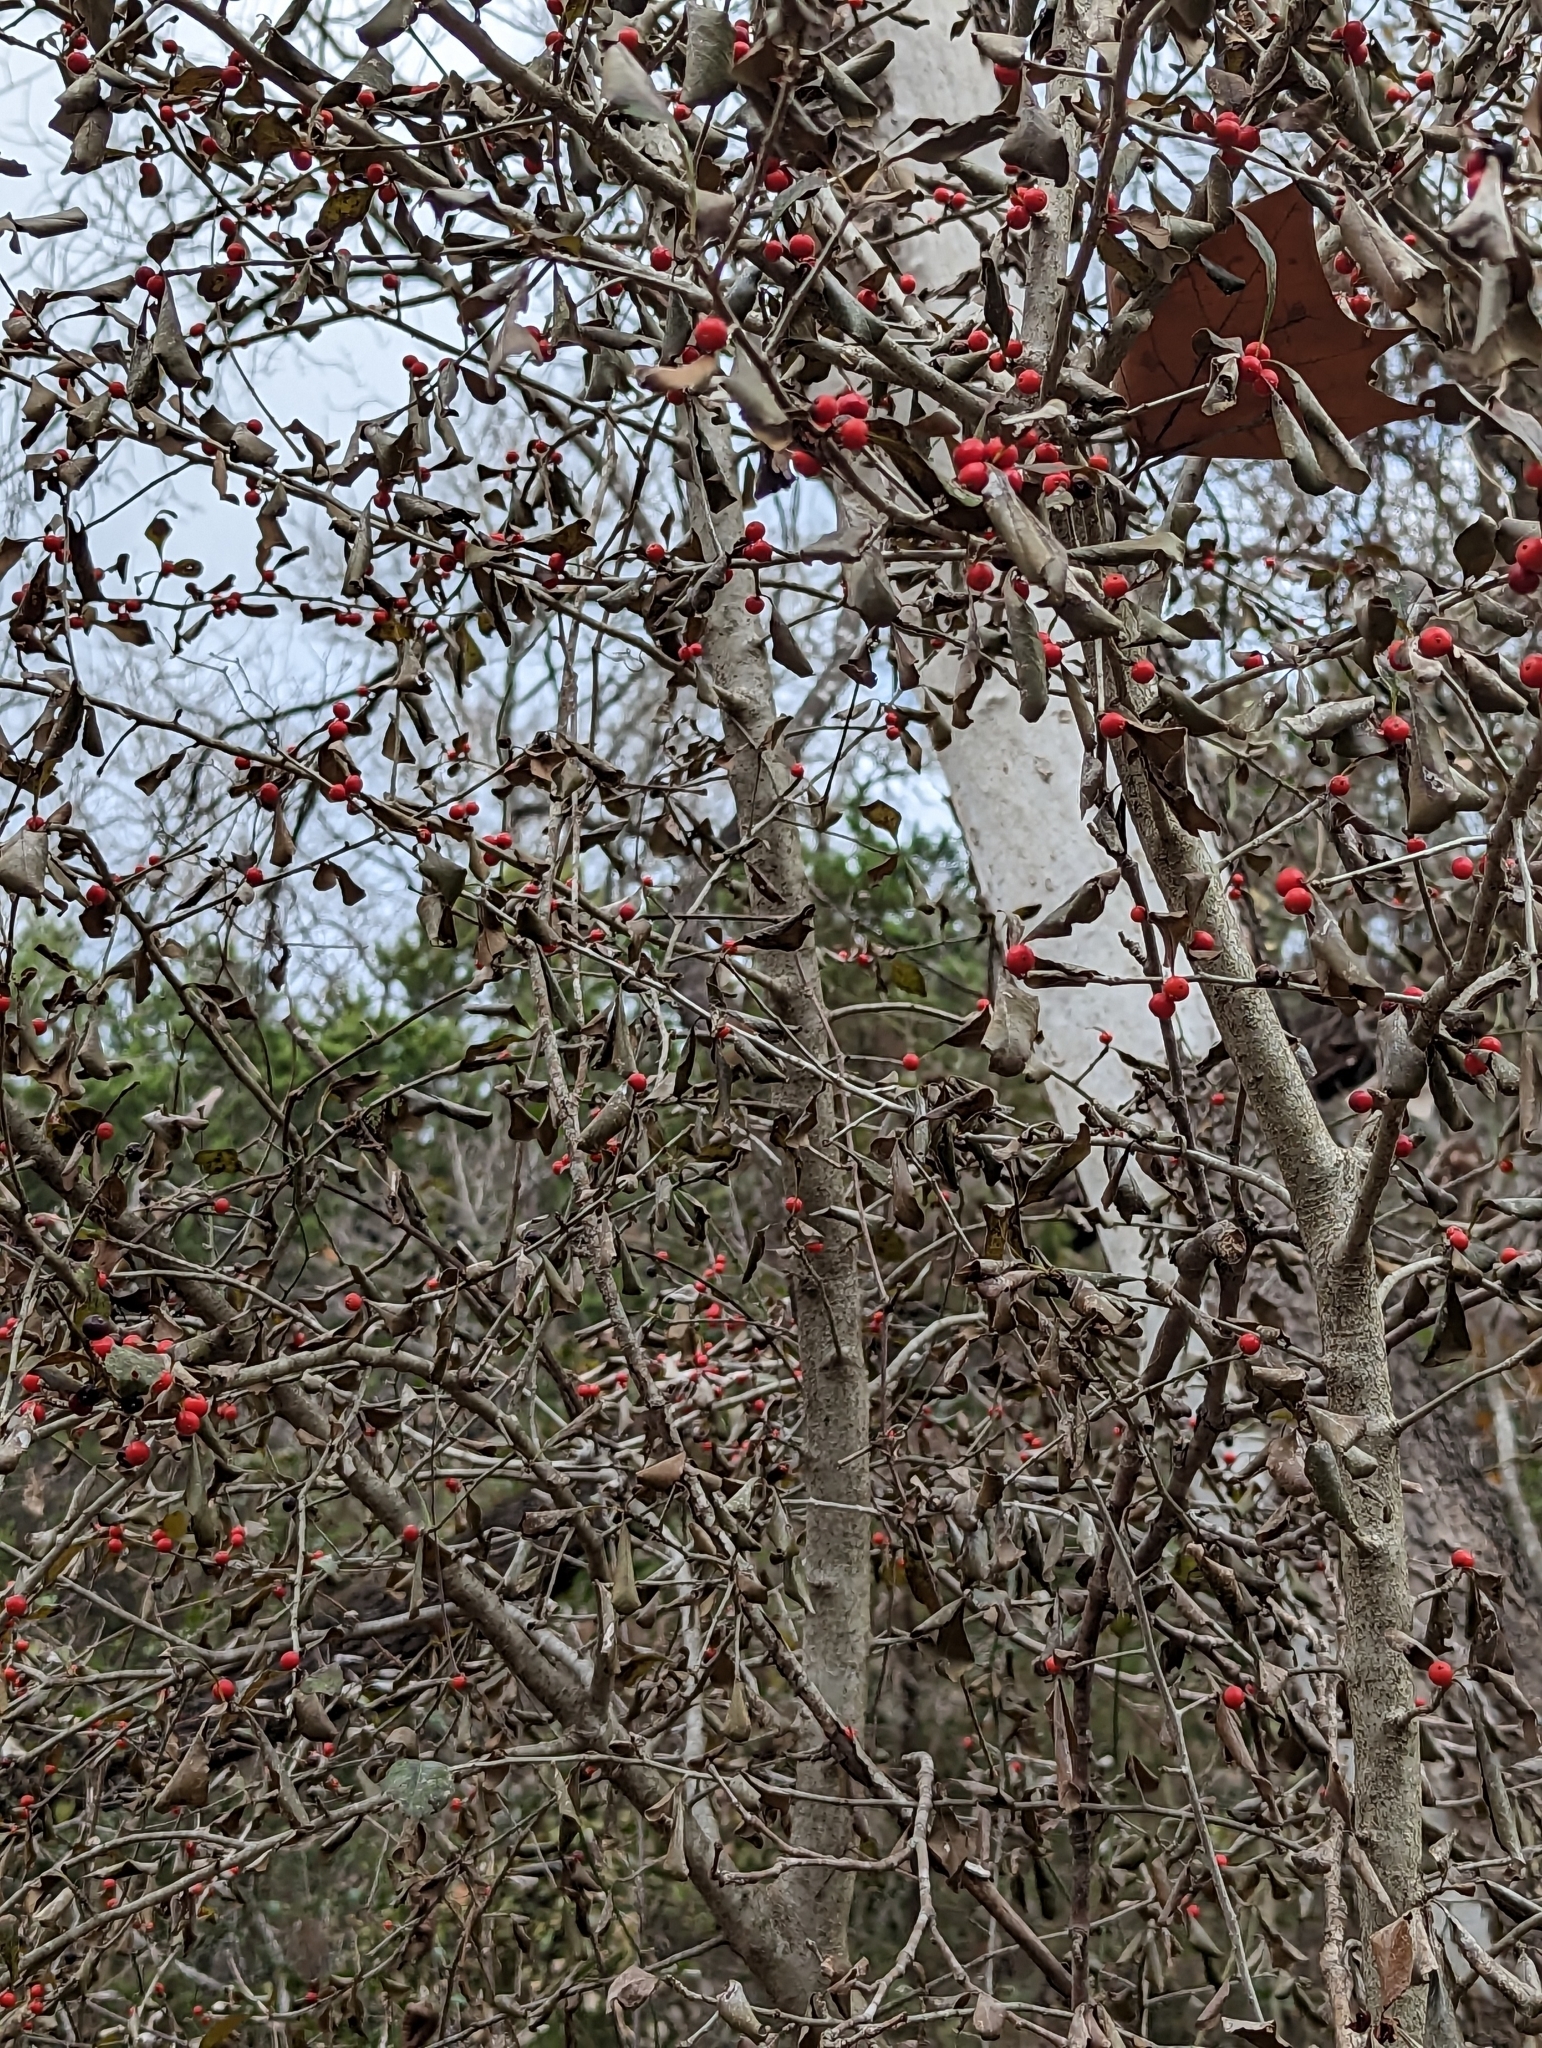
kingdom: Plantae
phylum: Tracheophyta
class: Magnoliopsida
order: Aquifoliales
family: Aquifoliaceae
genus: Ilex
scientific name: Ilex decidua
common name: Possum-haw
